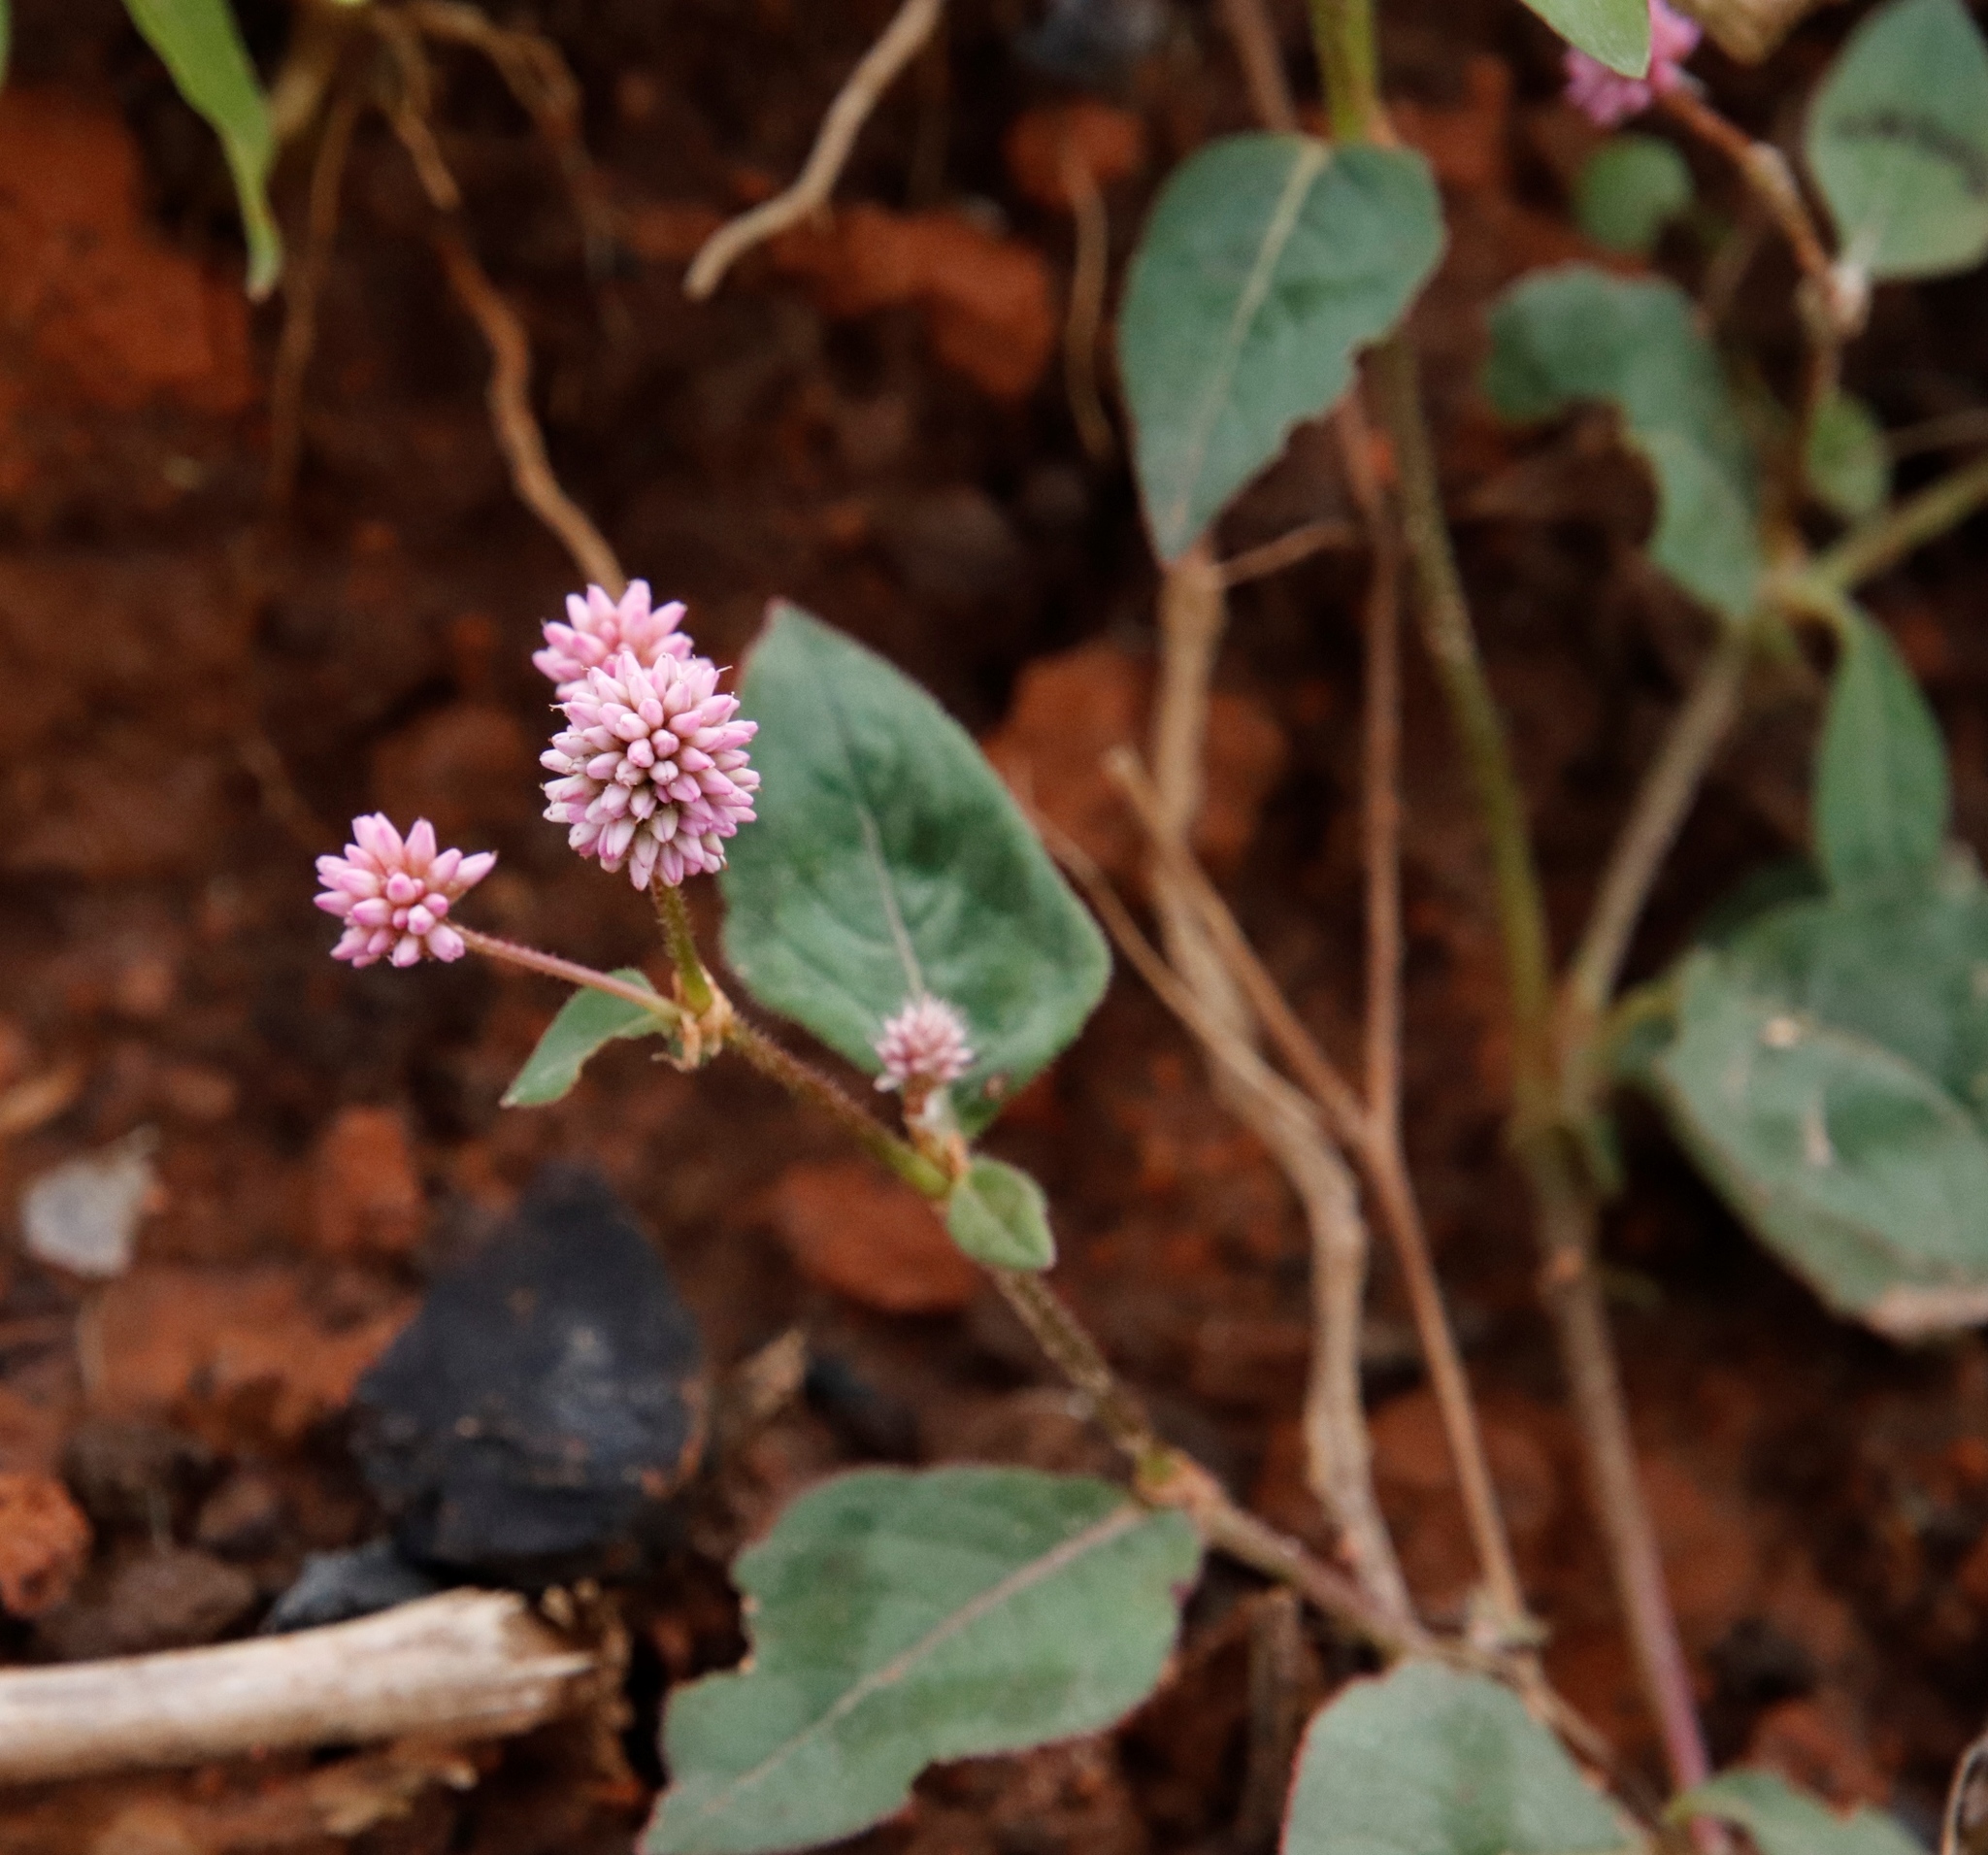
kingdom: Plantae
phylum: Tracheophyta
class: Magnoliopsida
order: Caryophyllales
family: Polygonaceae
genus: Persicaria
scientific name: Persicaria capitata
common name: Pinkhead smartweed
